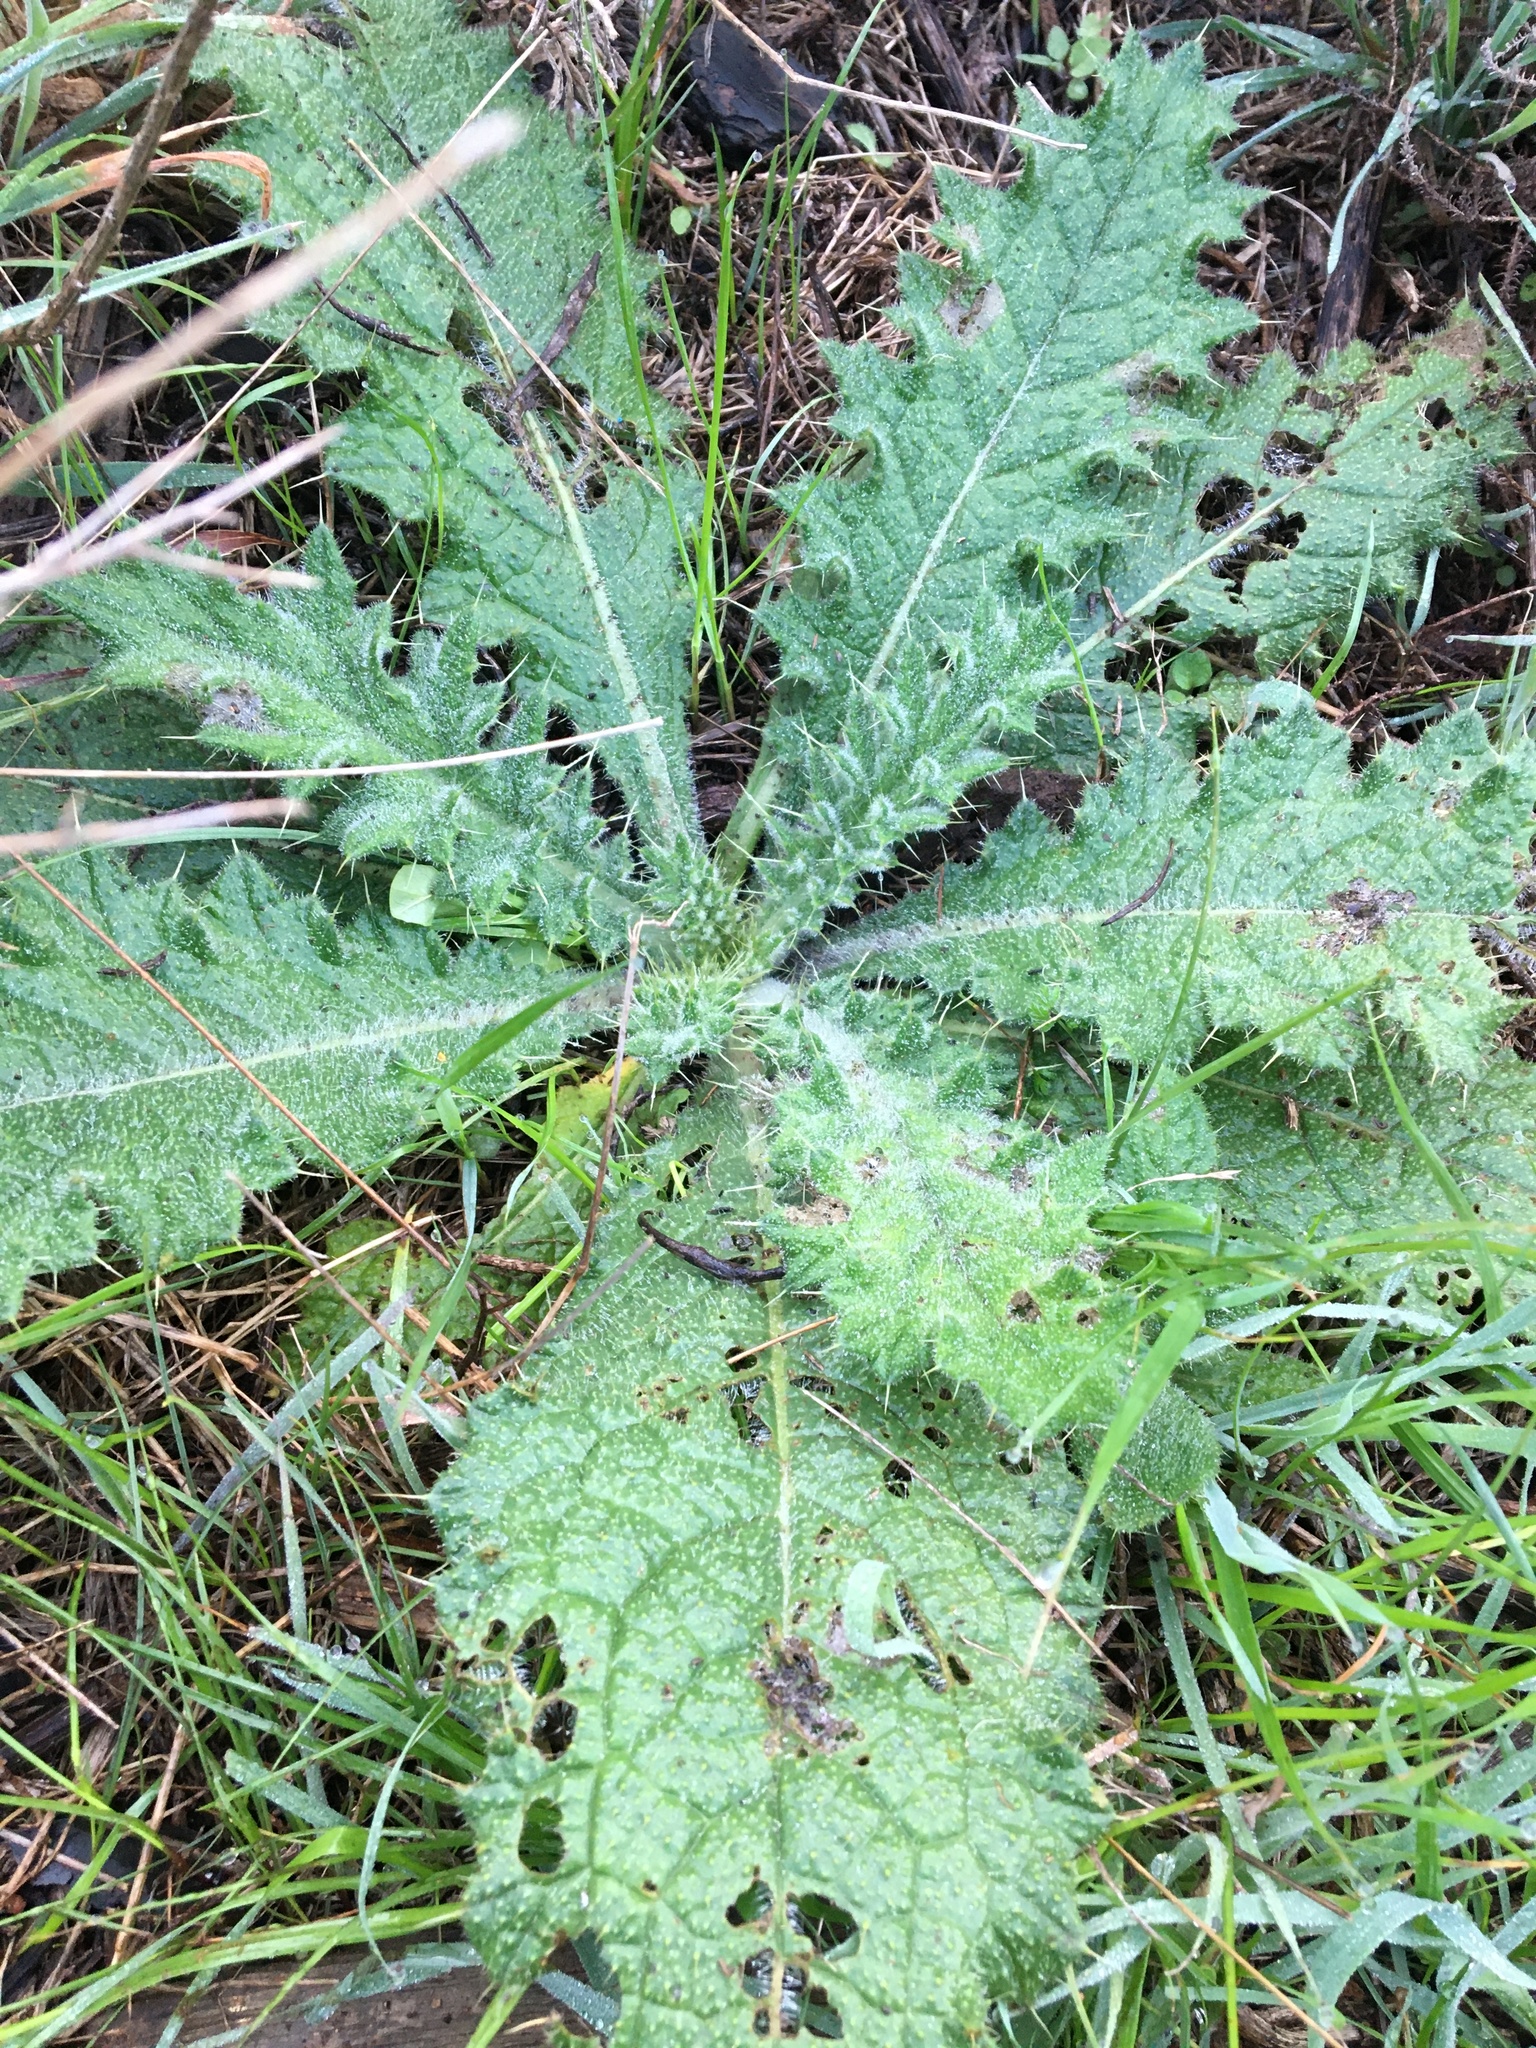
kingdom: Plantae
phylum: Tracheophyta
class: Magnoliopsida
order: Asterales
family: Asteraceae
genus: Cirsium
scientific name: Cirsium vulgare
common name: Bull thistle
